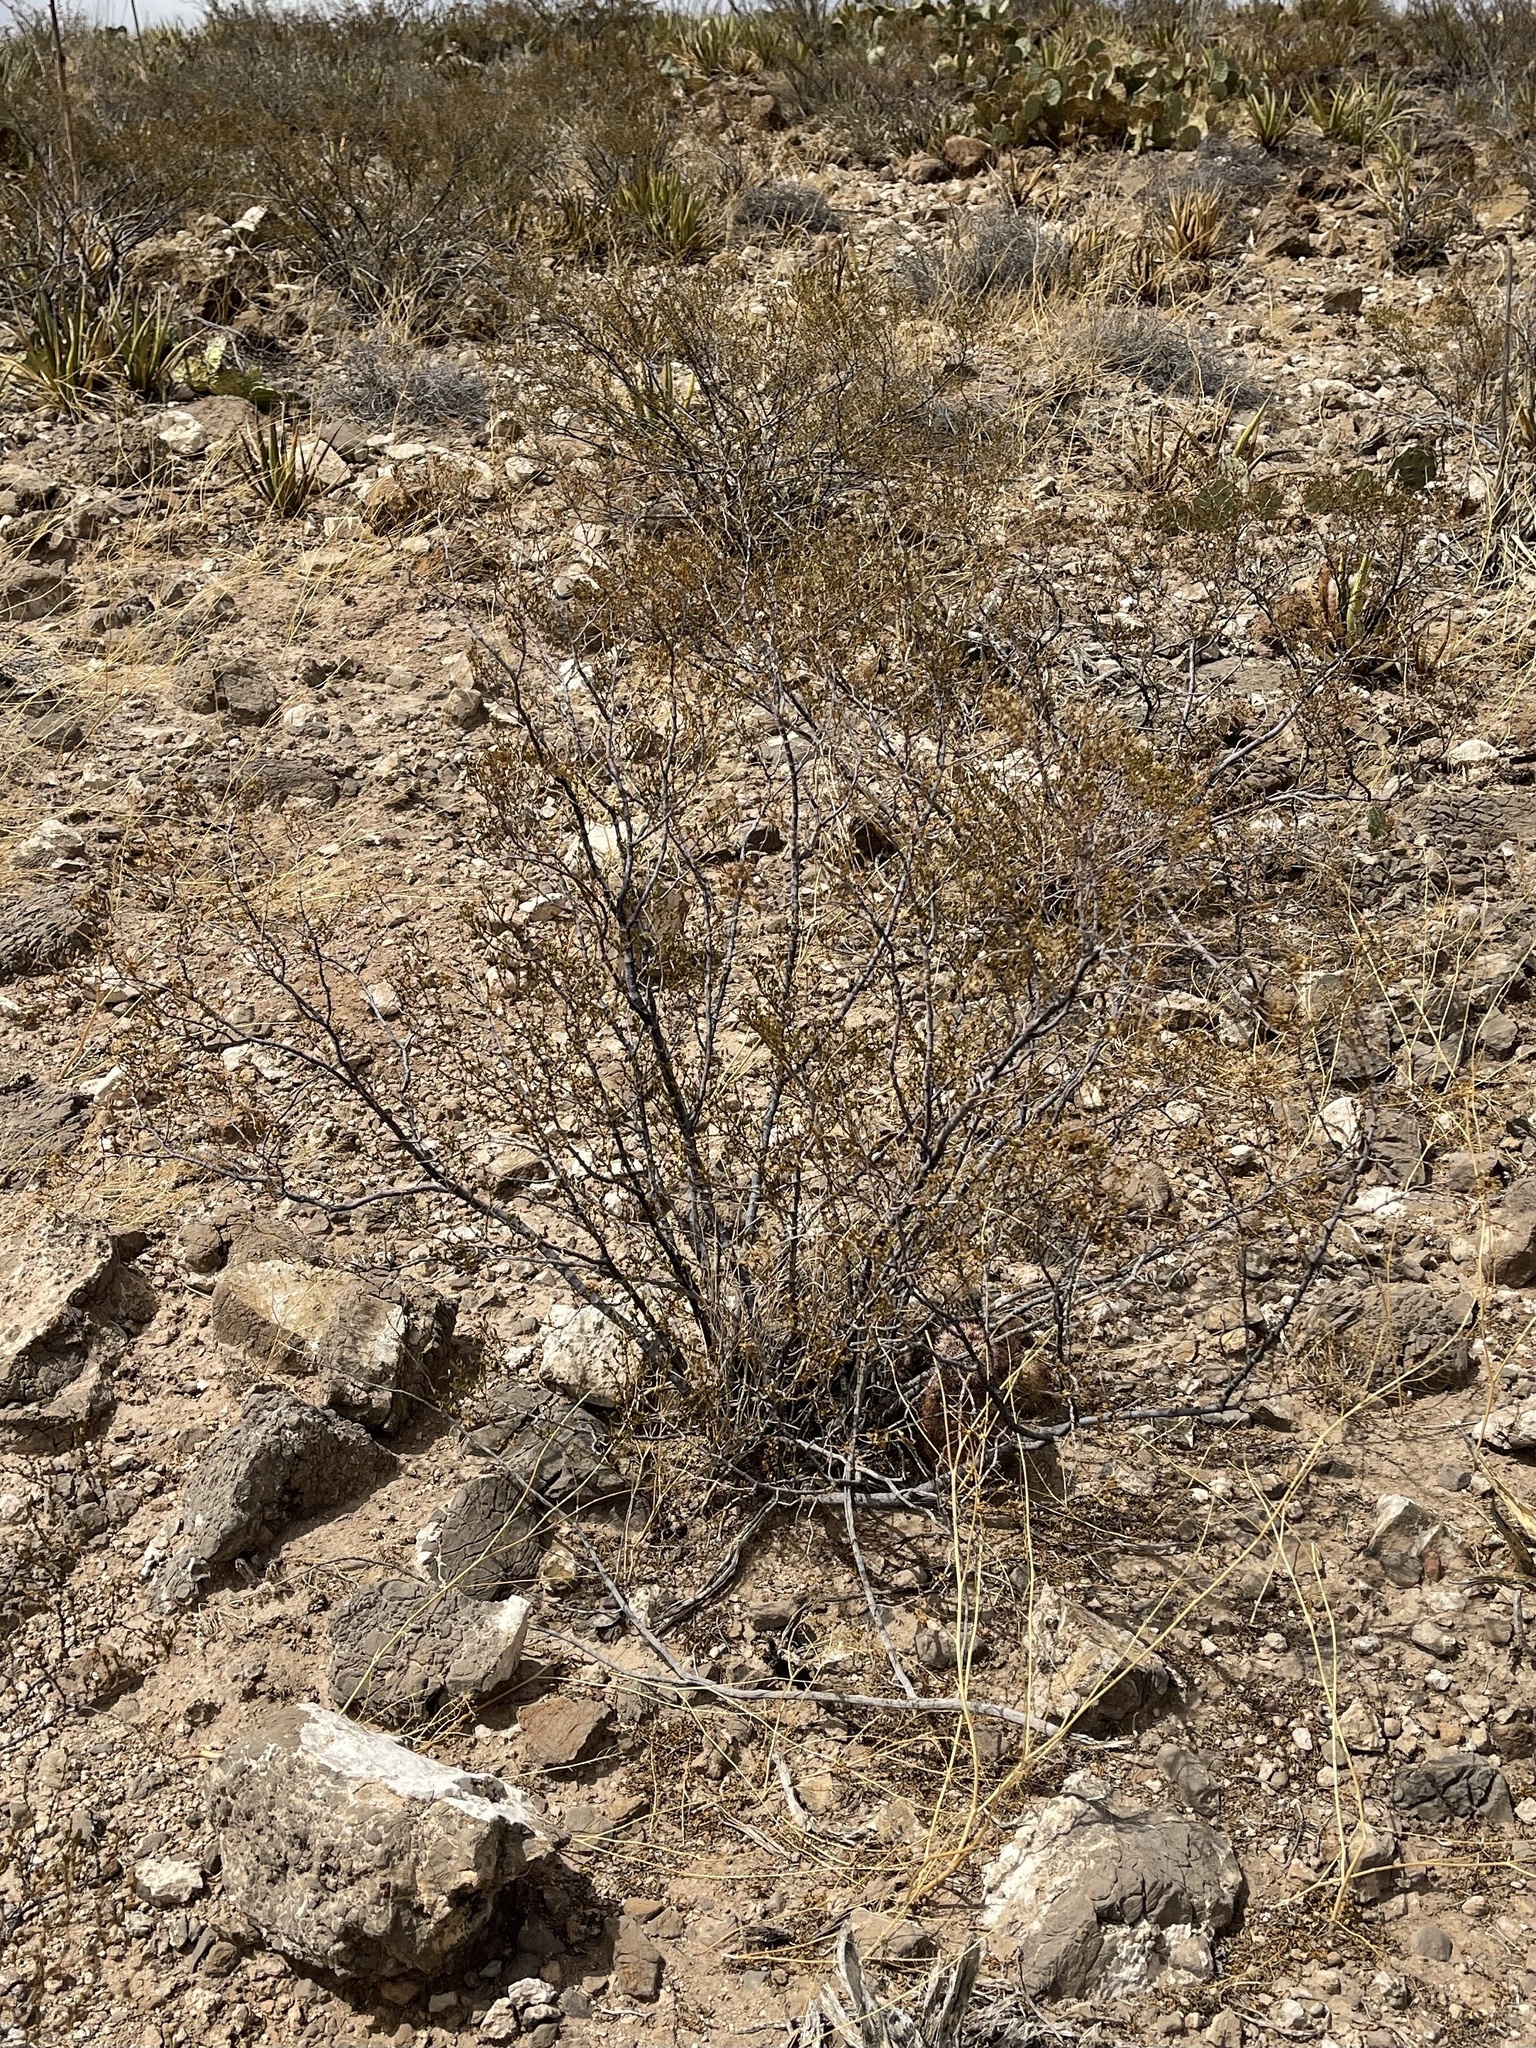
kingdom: Plantae
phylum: Tracheophyta
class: Magnoliopsida
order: Zygophyllales
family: Zygophyllaceae
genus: Larrea
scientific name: Larrea tridentata
